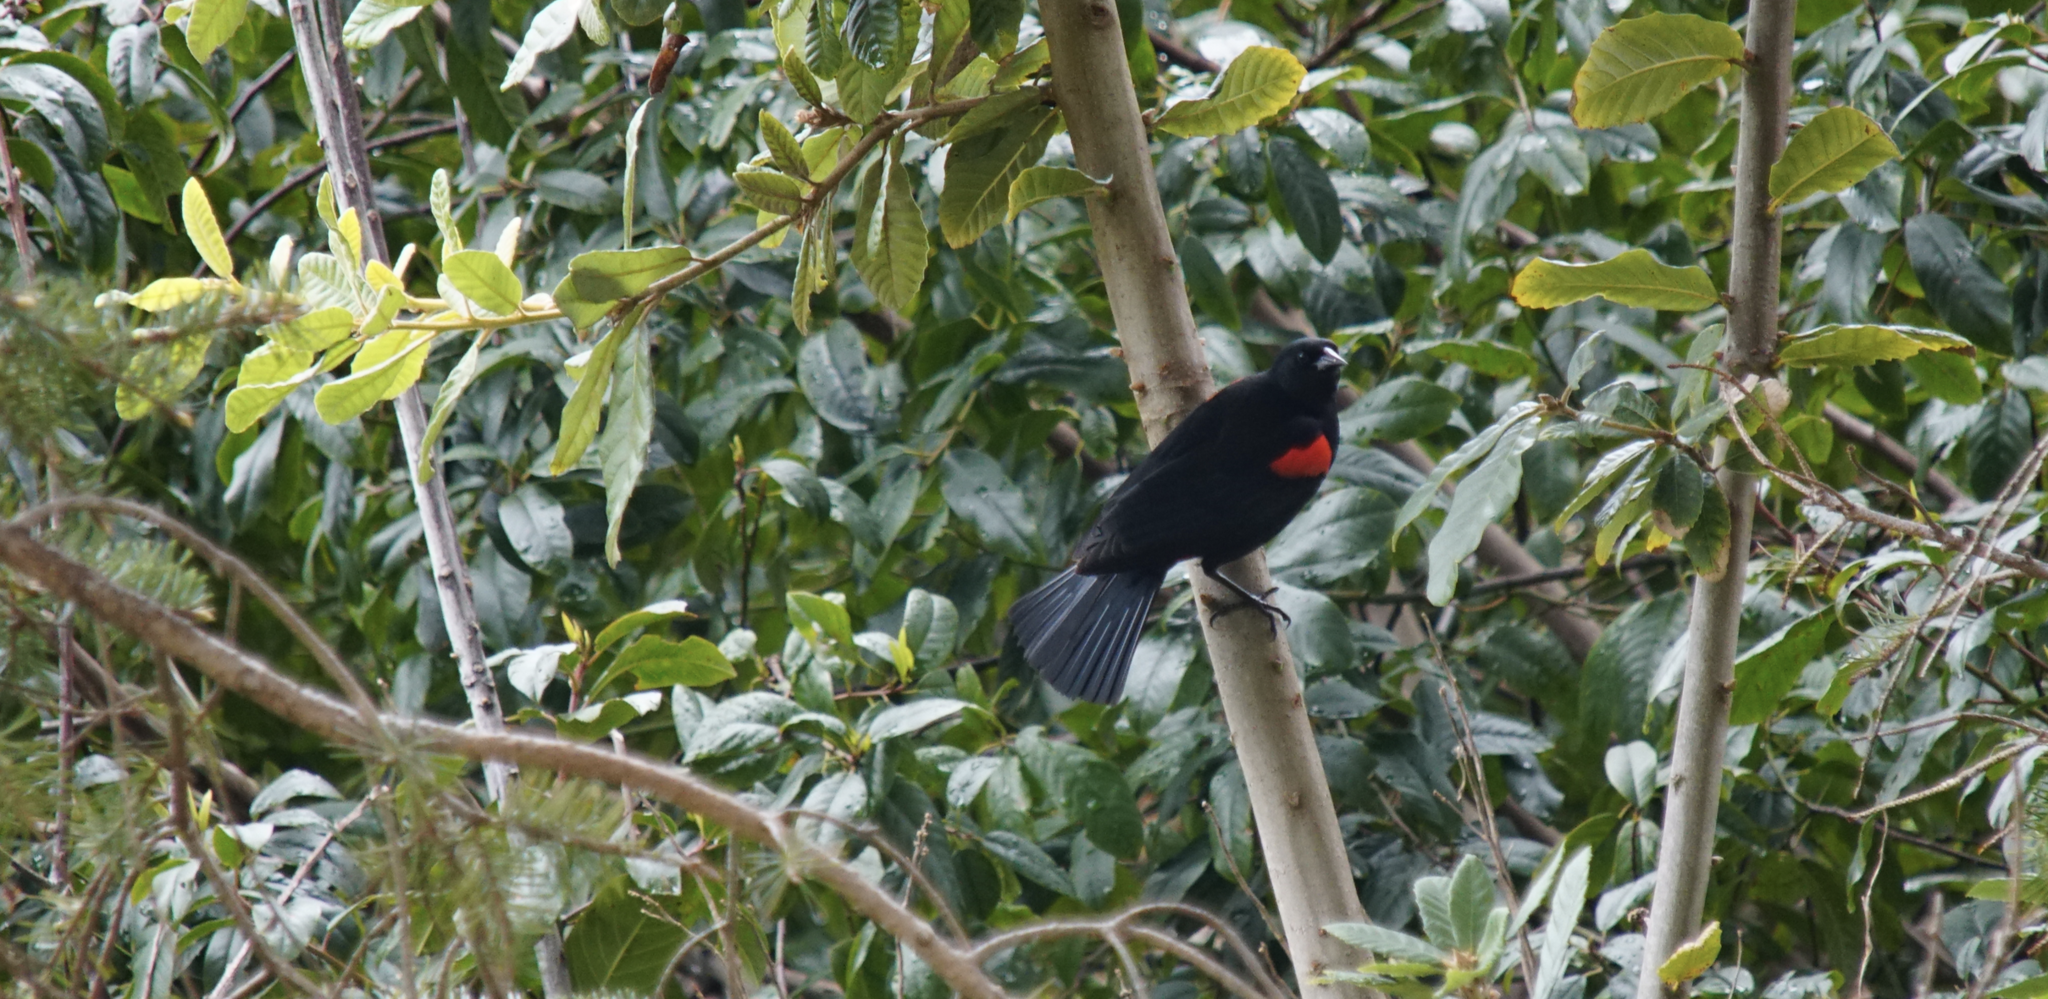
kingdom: Animalia
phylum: Chordata
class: Aves
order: Passeriformes
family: Icteridae
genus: Agelaius
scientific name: Agelaius phoeniceus
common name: Red-winged blackbird
